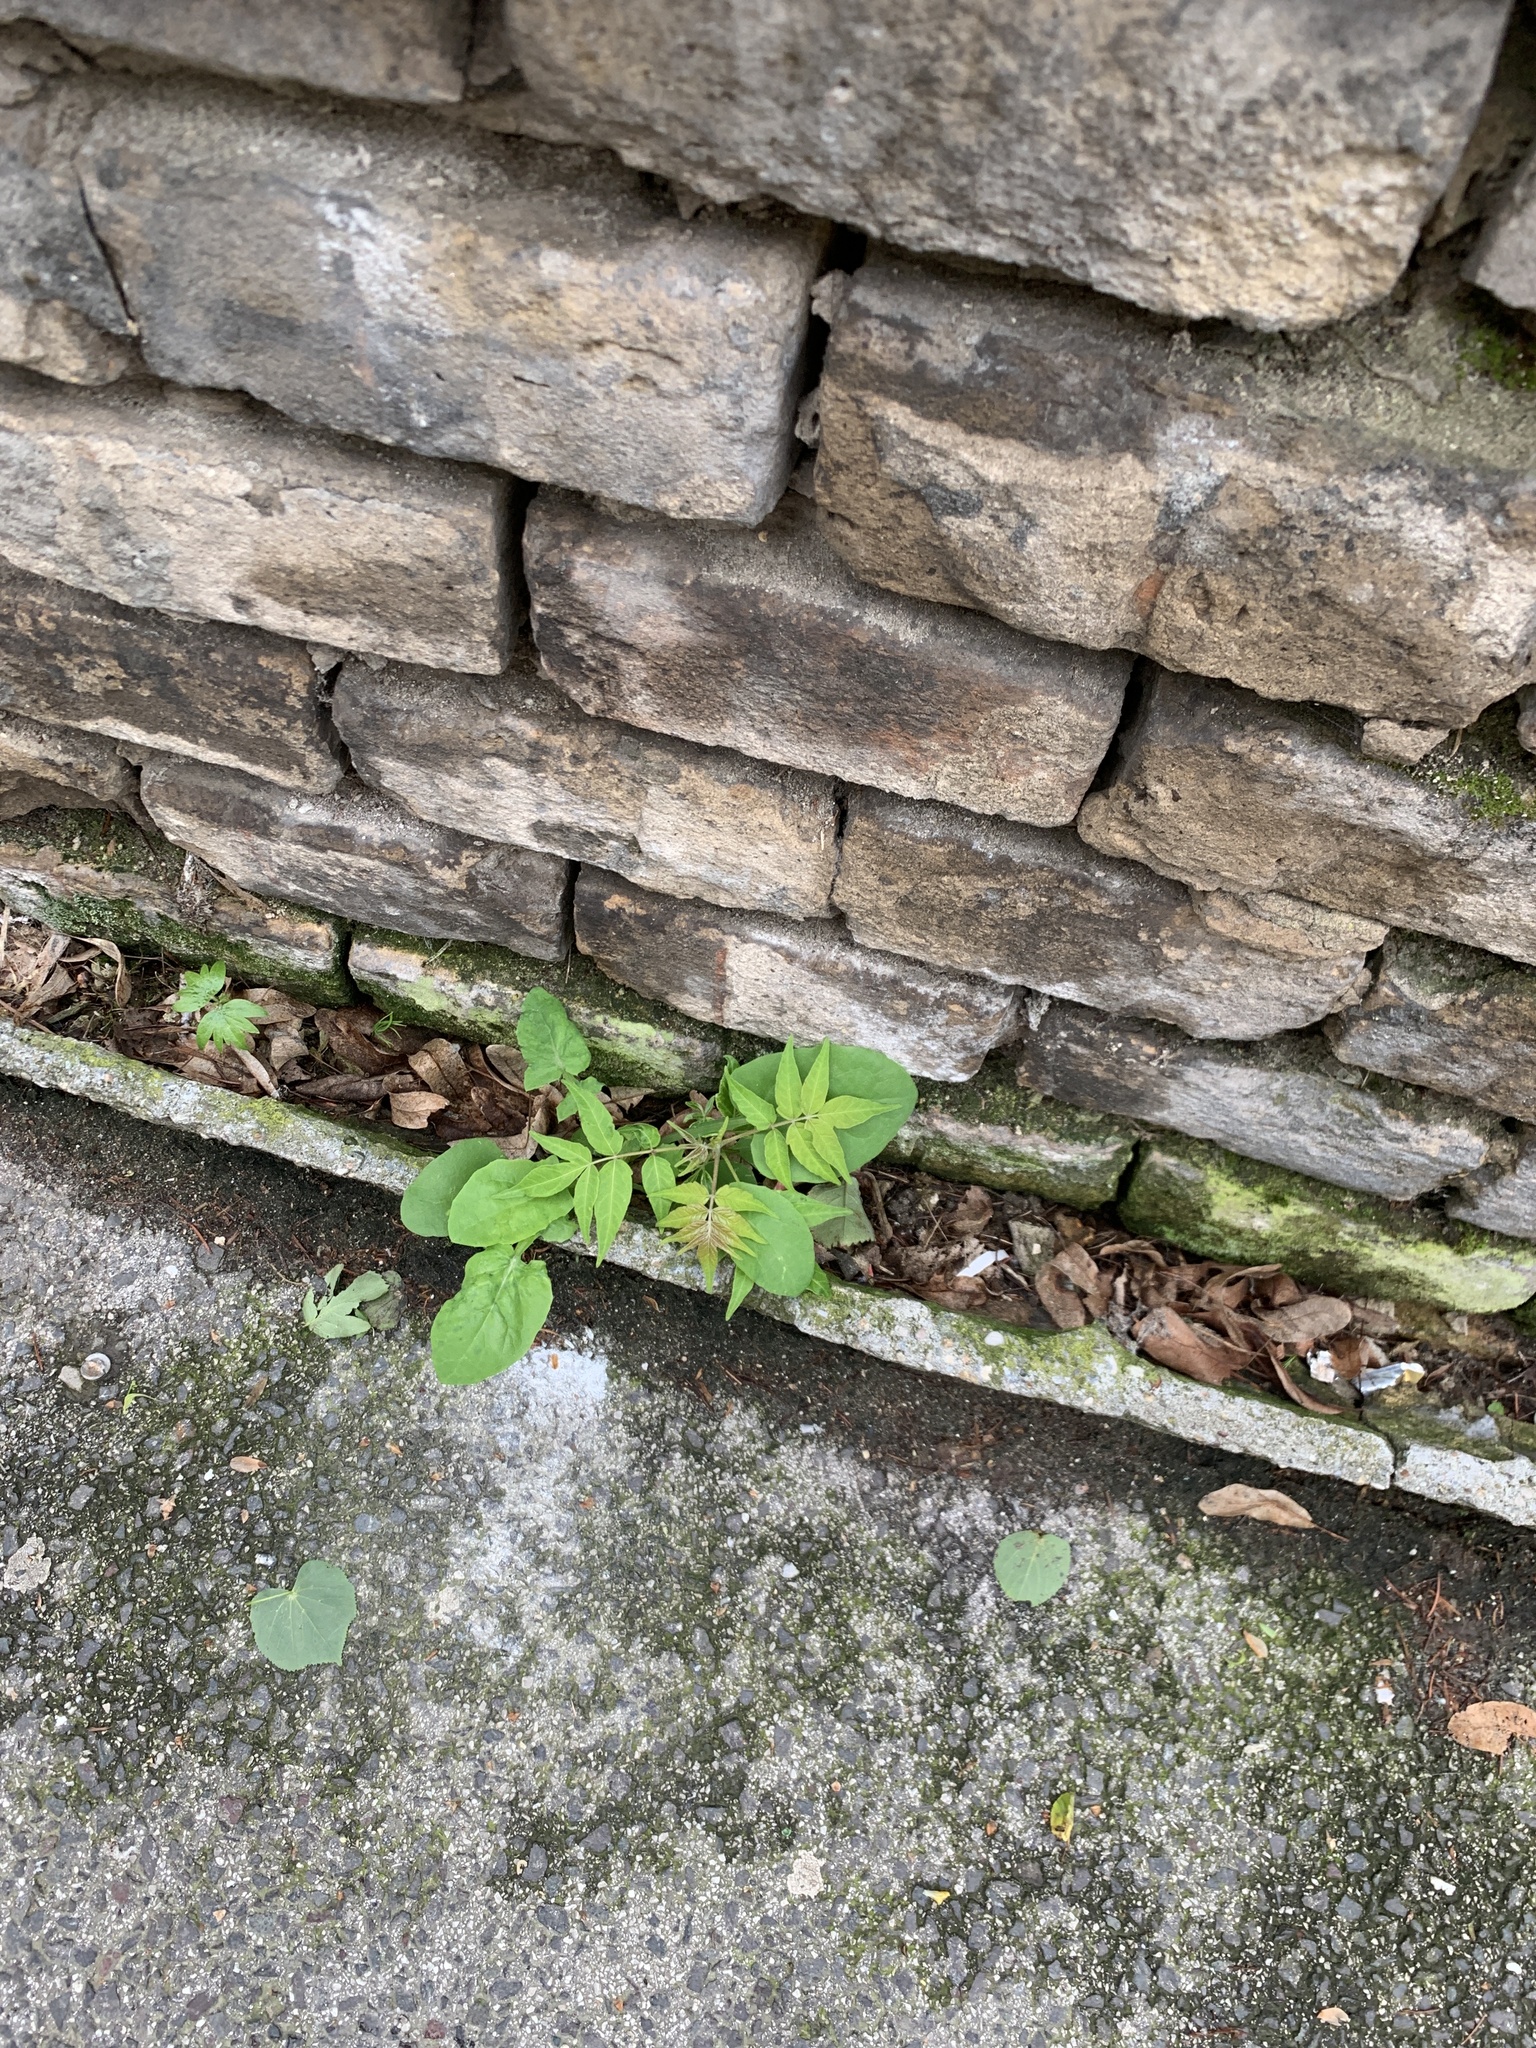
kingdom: Plantae
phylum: Tracheophyta
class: Magnoliopsida
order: Sapindales
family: Simaroubaceae
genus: Ailanthus
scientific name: Ailanthus altissima
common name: Tree-of-heaven
